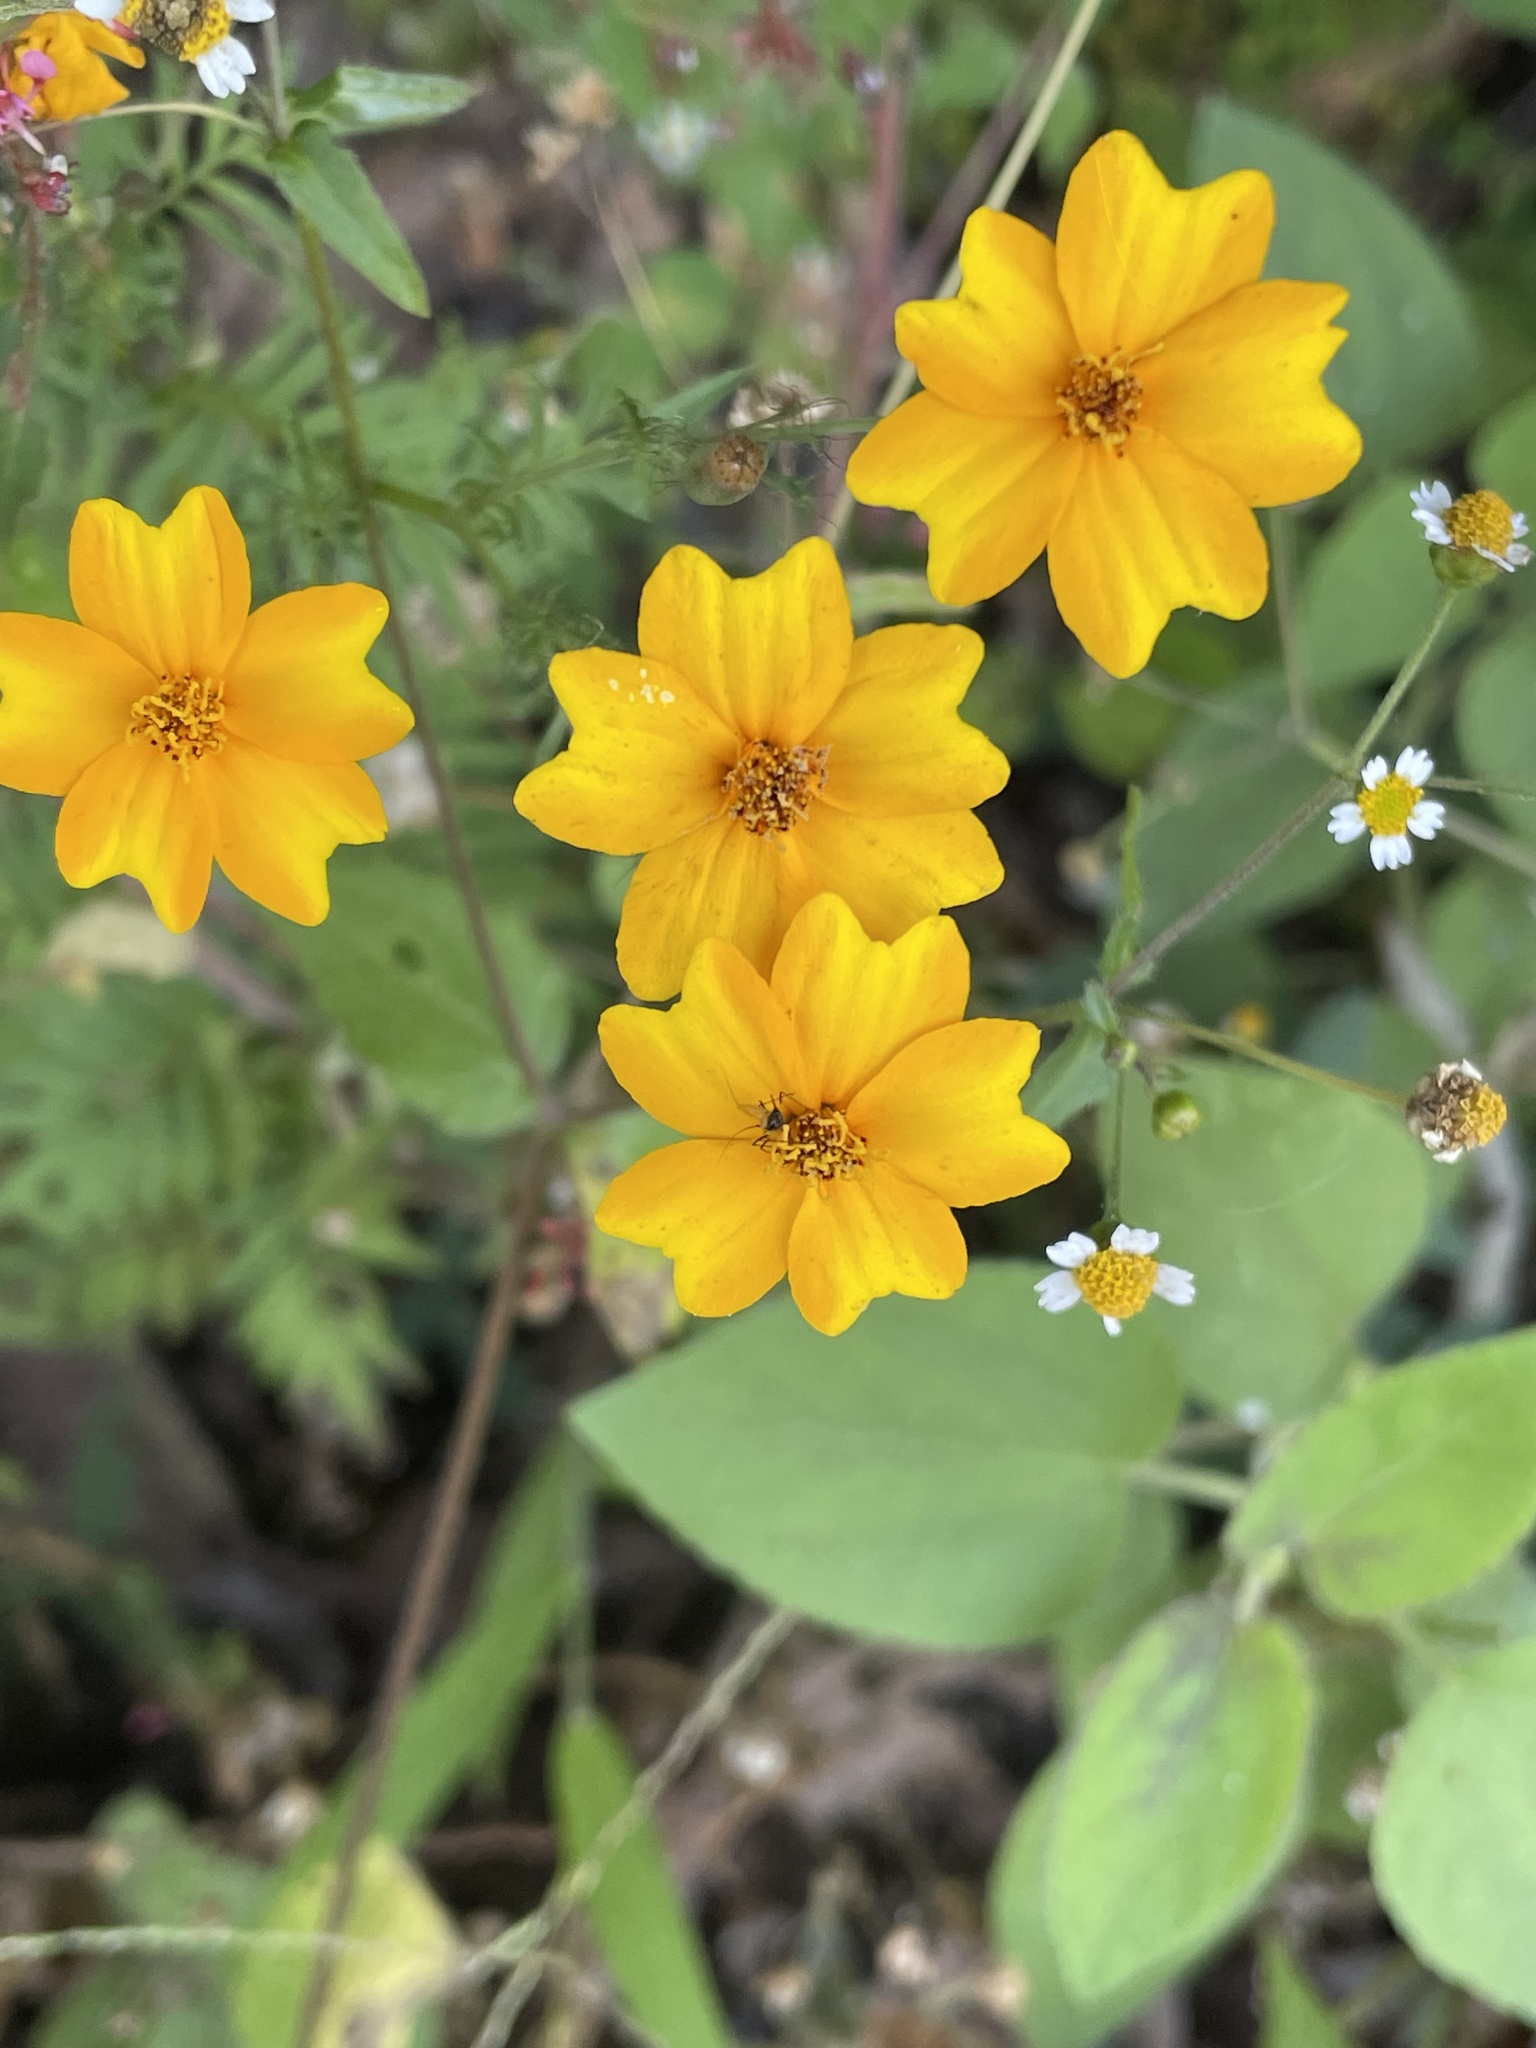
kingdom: Plantae
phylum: Tracheophyta
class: Magnoliopsida
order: Asterales
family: Asteraceae
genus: Tagetes
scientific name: Tagetes tenuifolia
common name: Signet marigold
